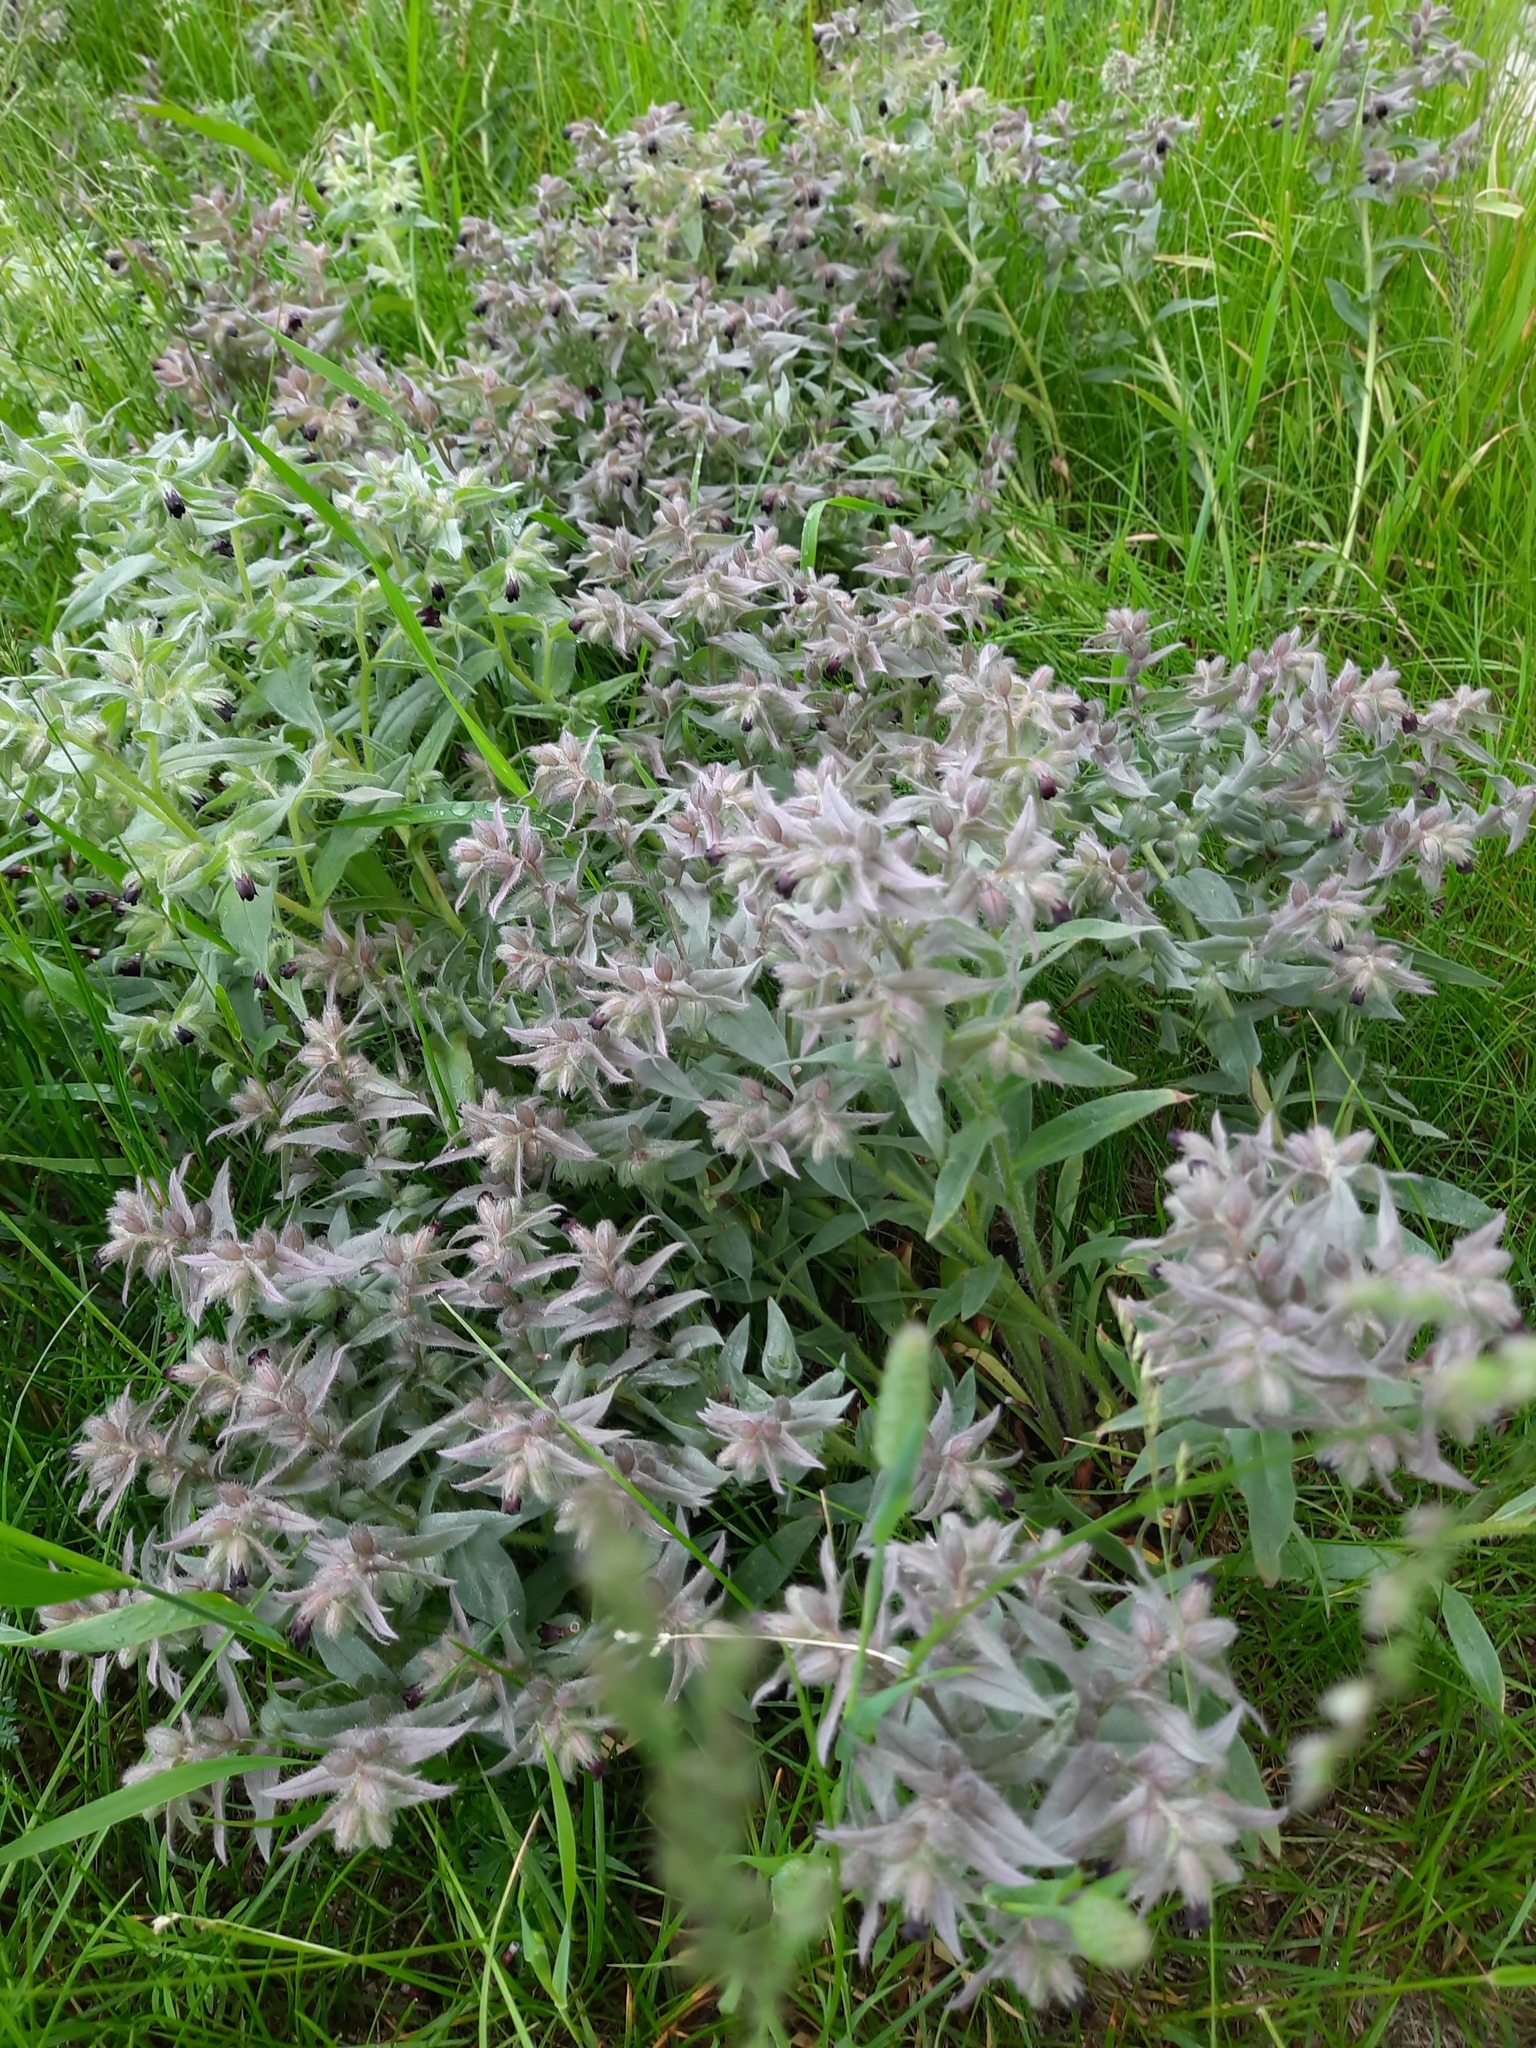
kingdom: Plantae
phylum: Tracheophyta
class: Magnoliopsida
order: Boraginales
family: Boraginaceae
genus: Nonea
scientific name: Nonea pulla
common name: Brown nonea
